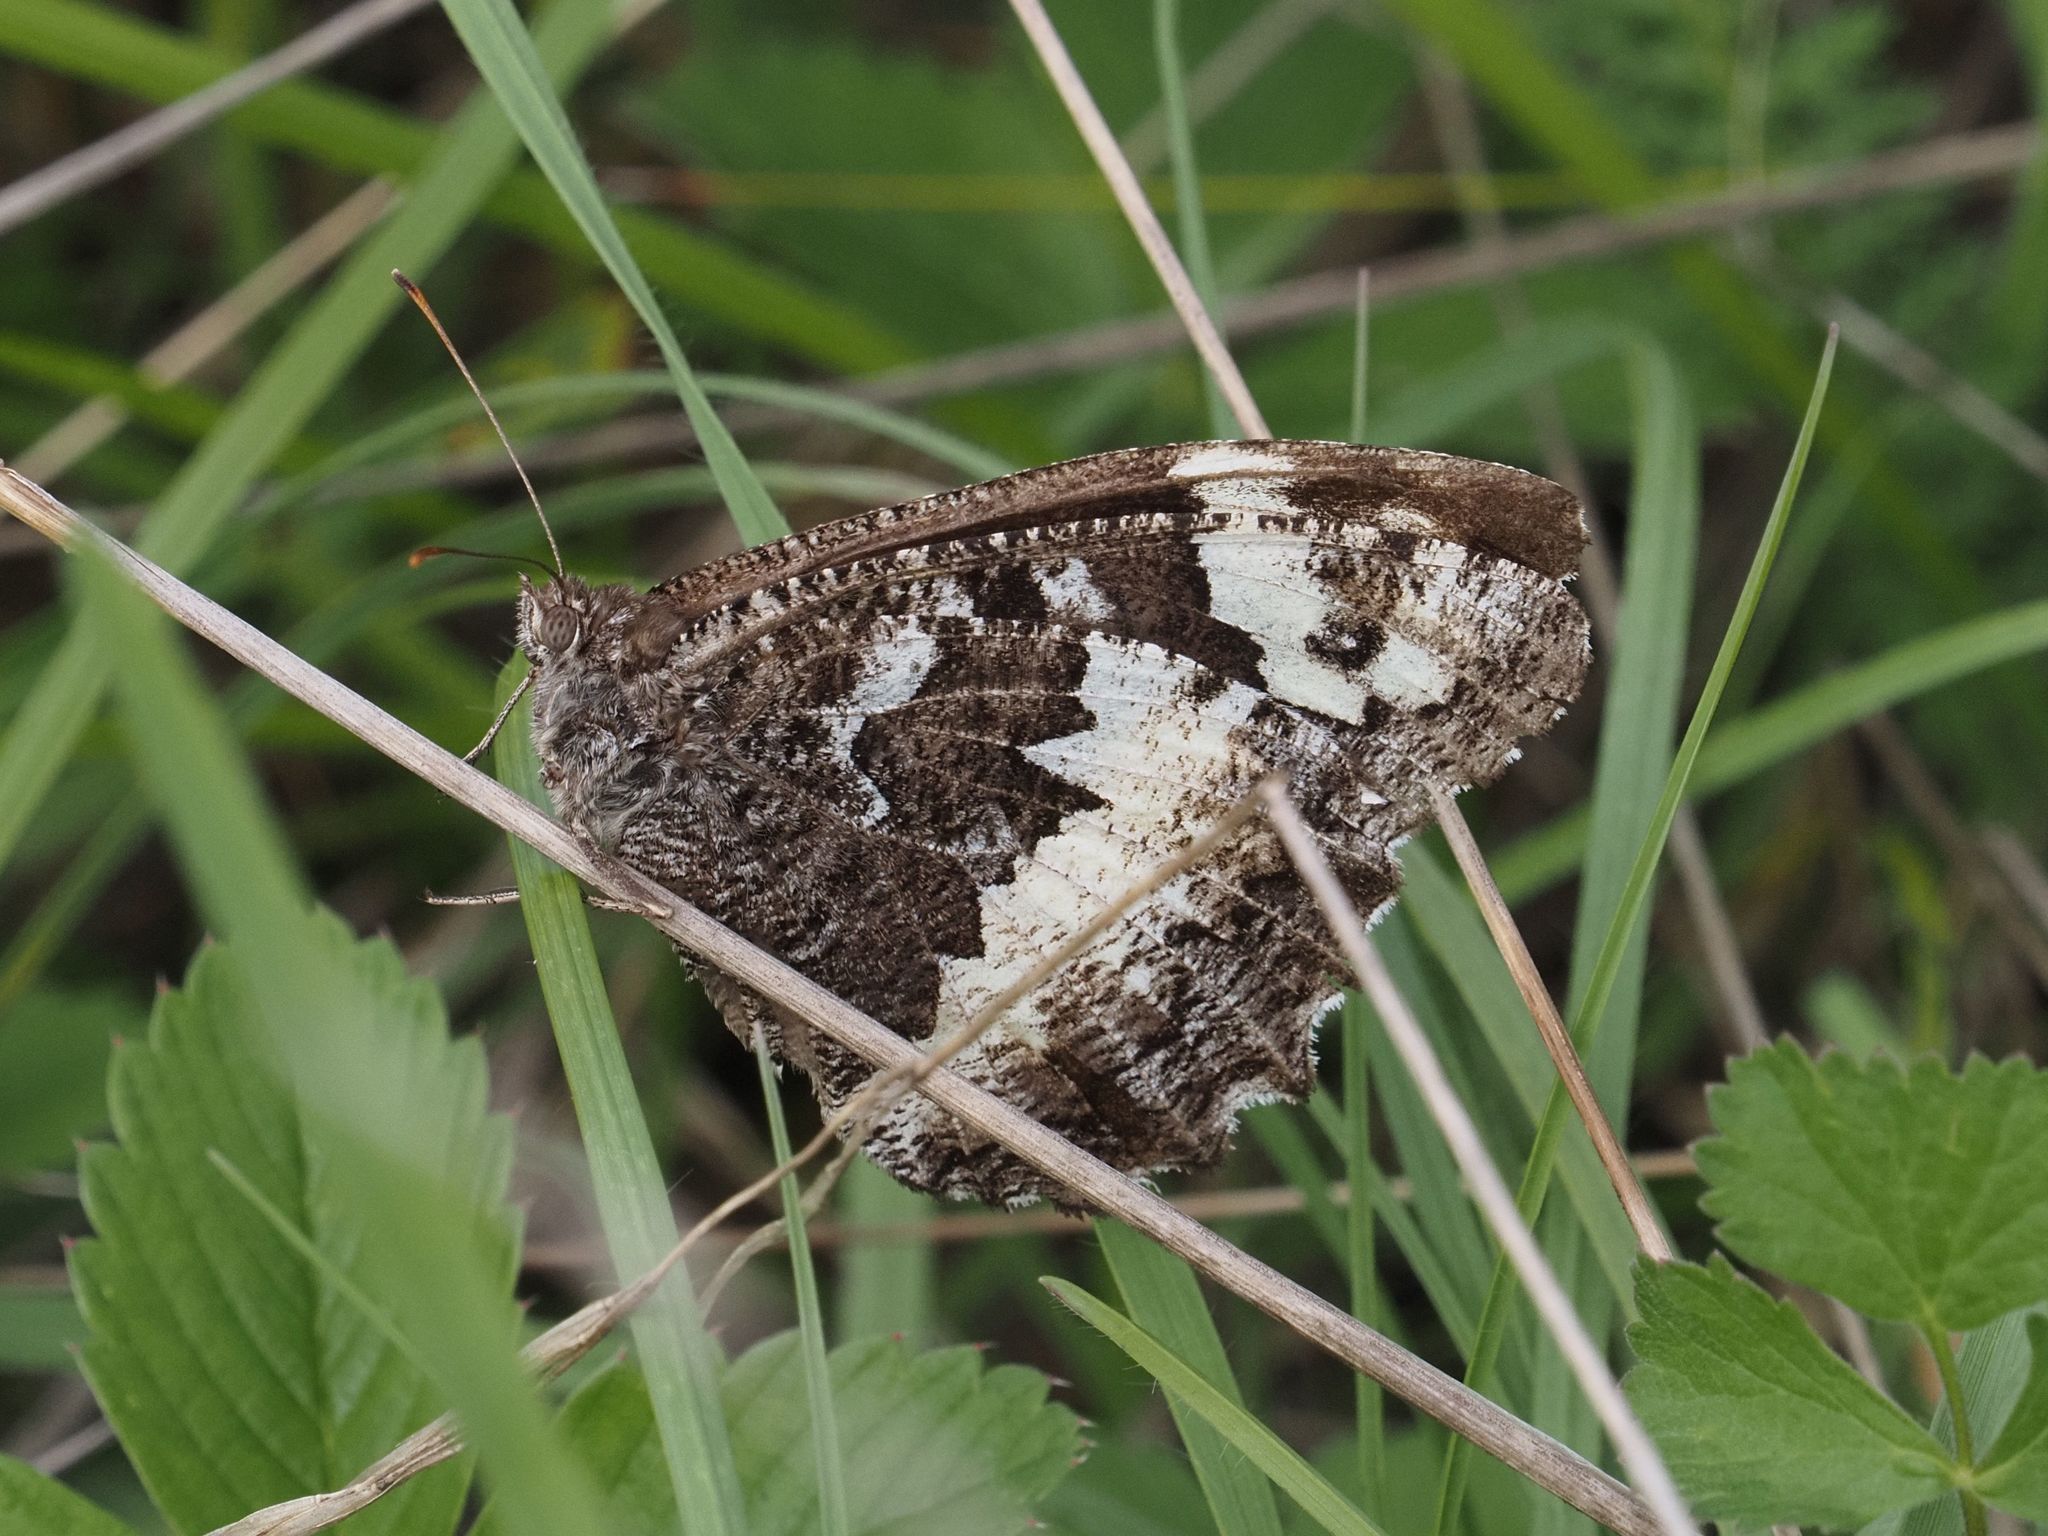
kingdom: Animalia
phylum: Arthropoda
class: Insecta
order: Lepidoptera
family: Lycaenidae
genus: Loweia
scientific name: Loweia tityrus
